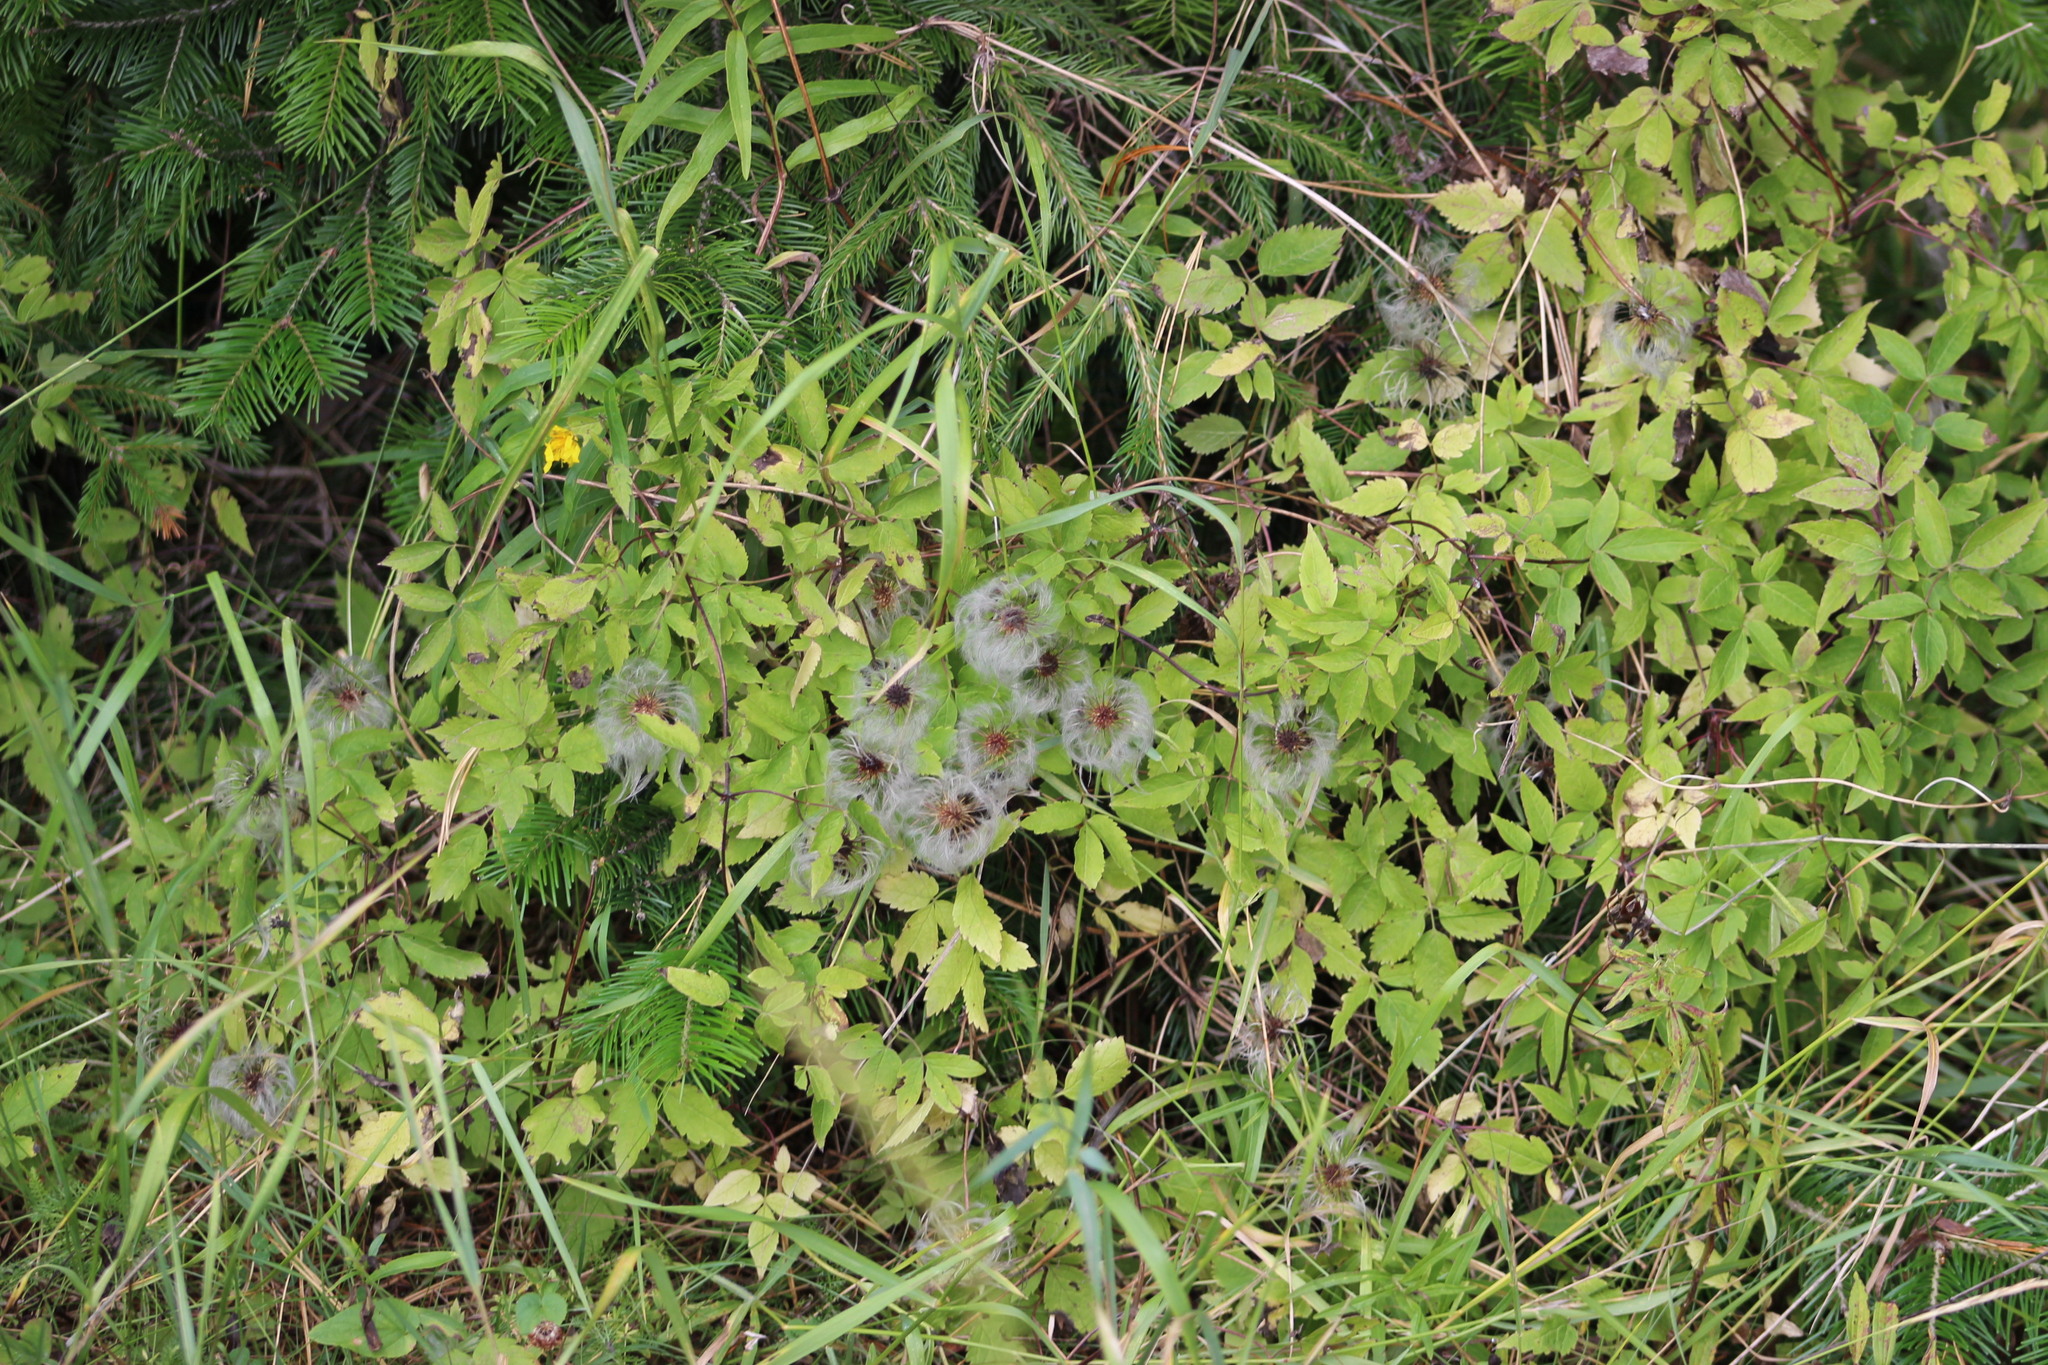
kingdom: Plantae
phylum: Tracheophyta
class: Magnoliopsida
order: Ranunculales
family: Ranunculaceae
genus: Clematis
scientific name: Clematis sibirica
